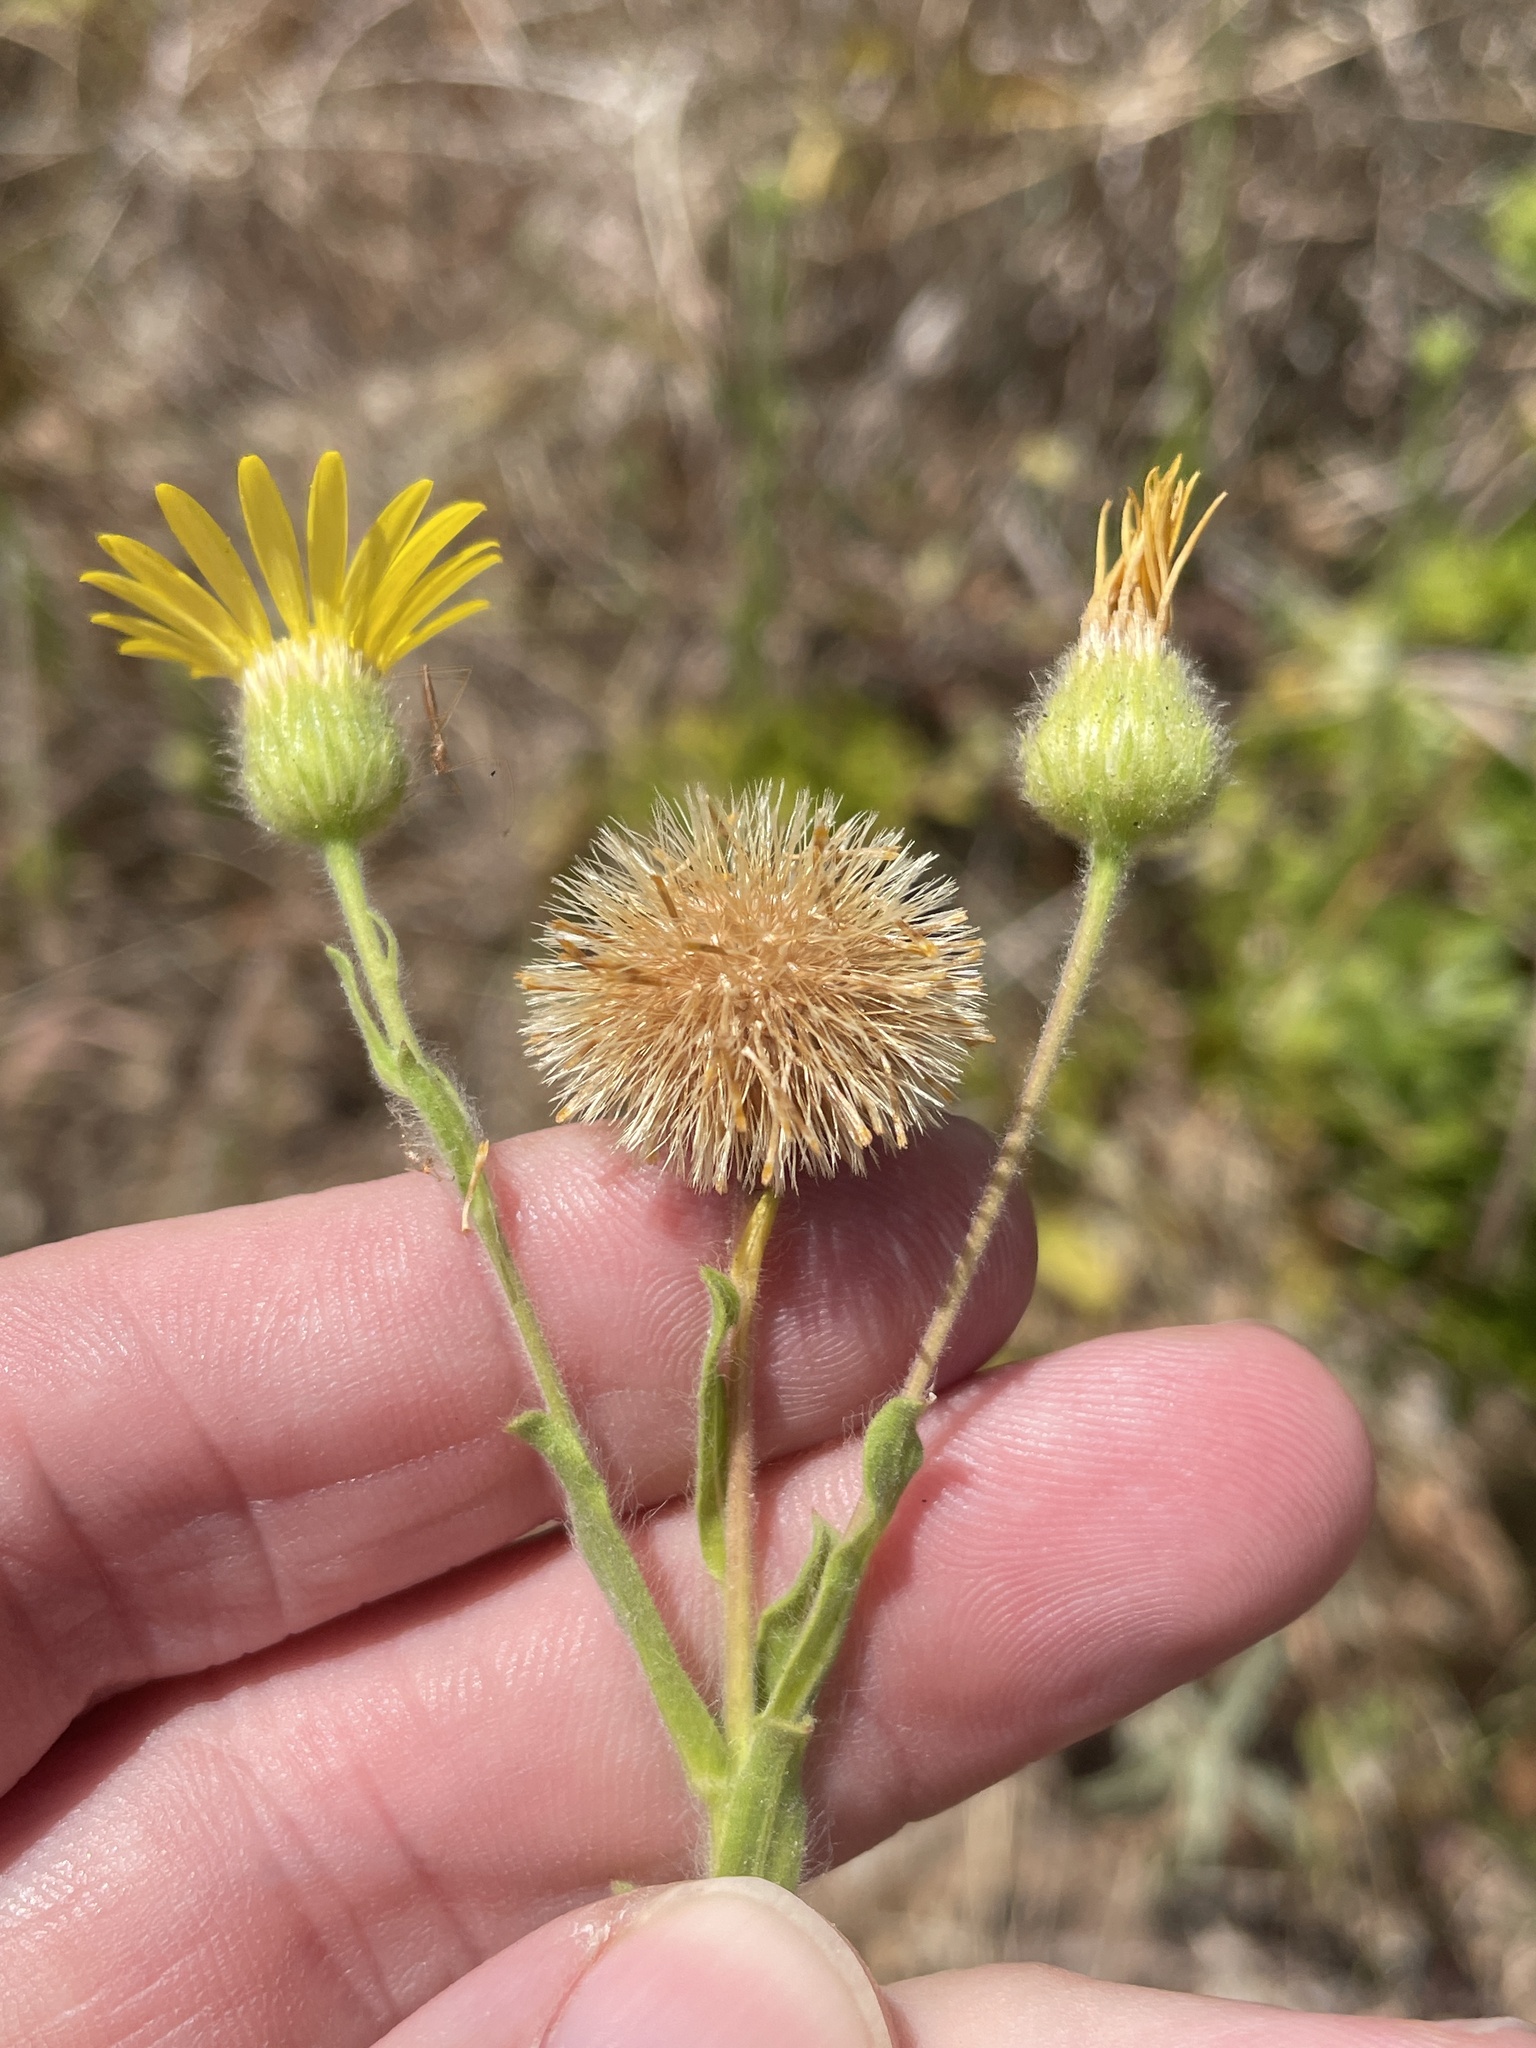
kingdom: Plantae
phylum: Tracheophyta
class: Magnoliopsida
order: Asterales
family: Asteraceae
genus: Bradburia
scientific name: Bradburia pilosa
